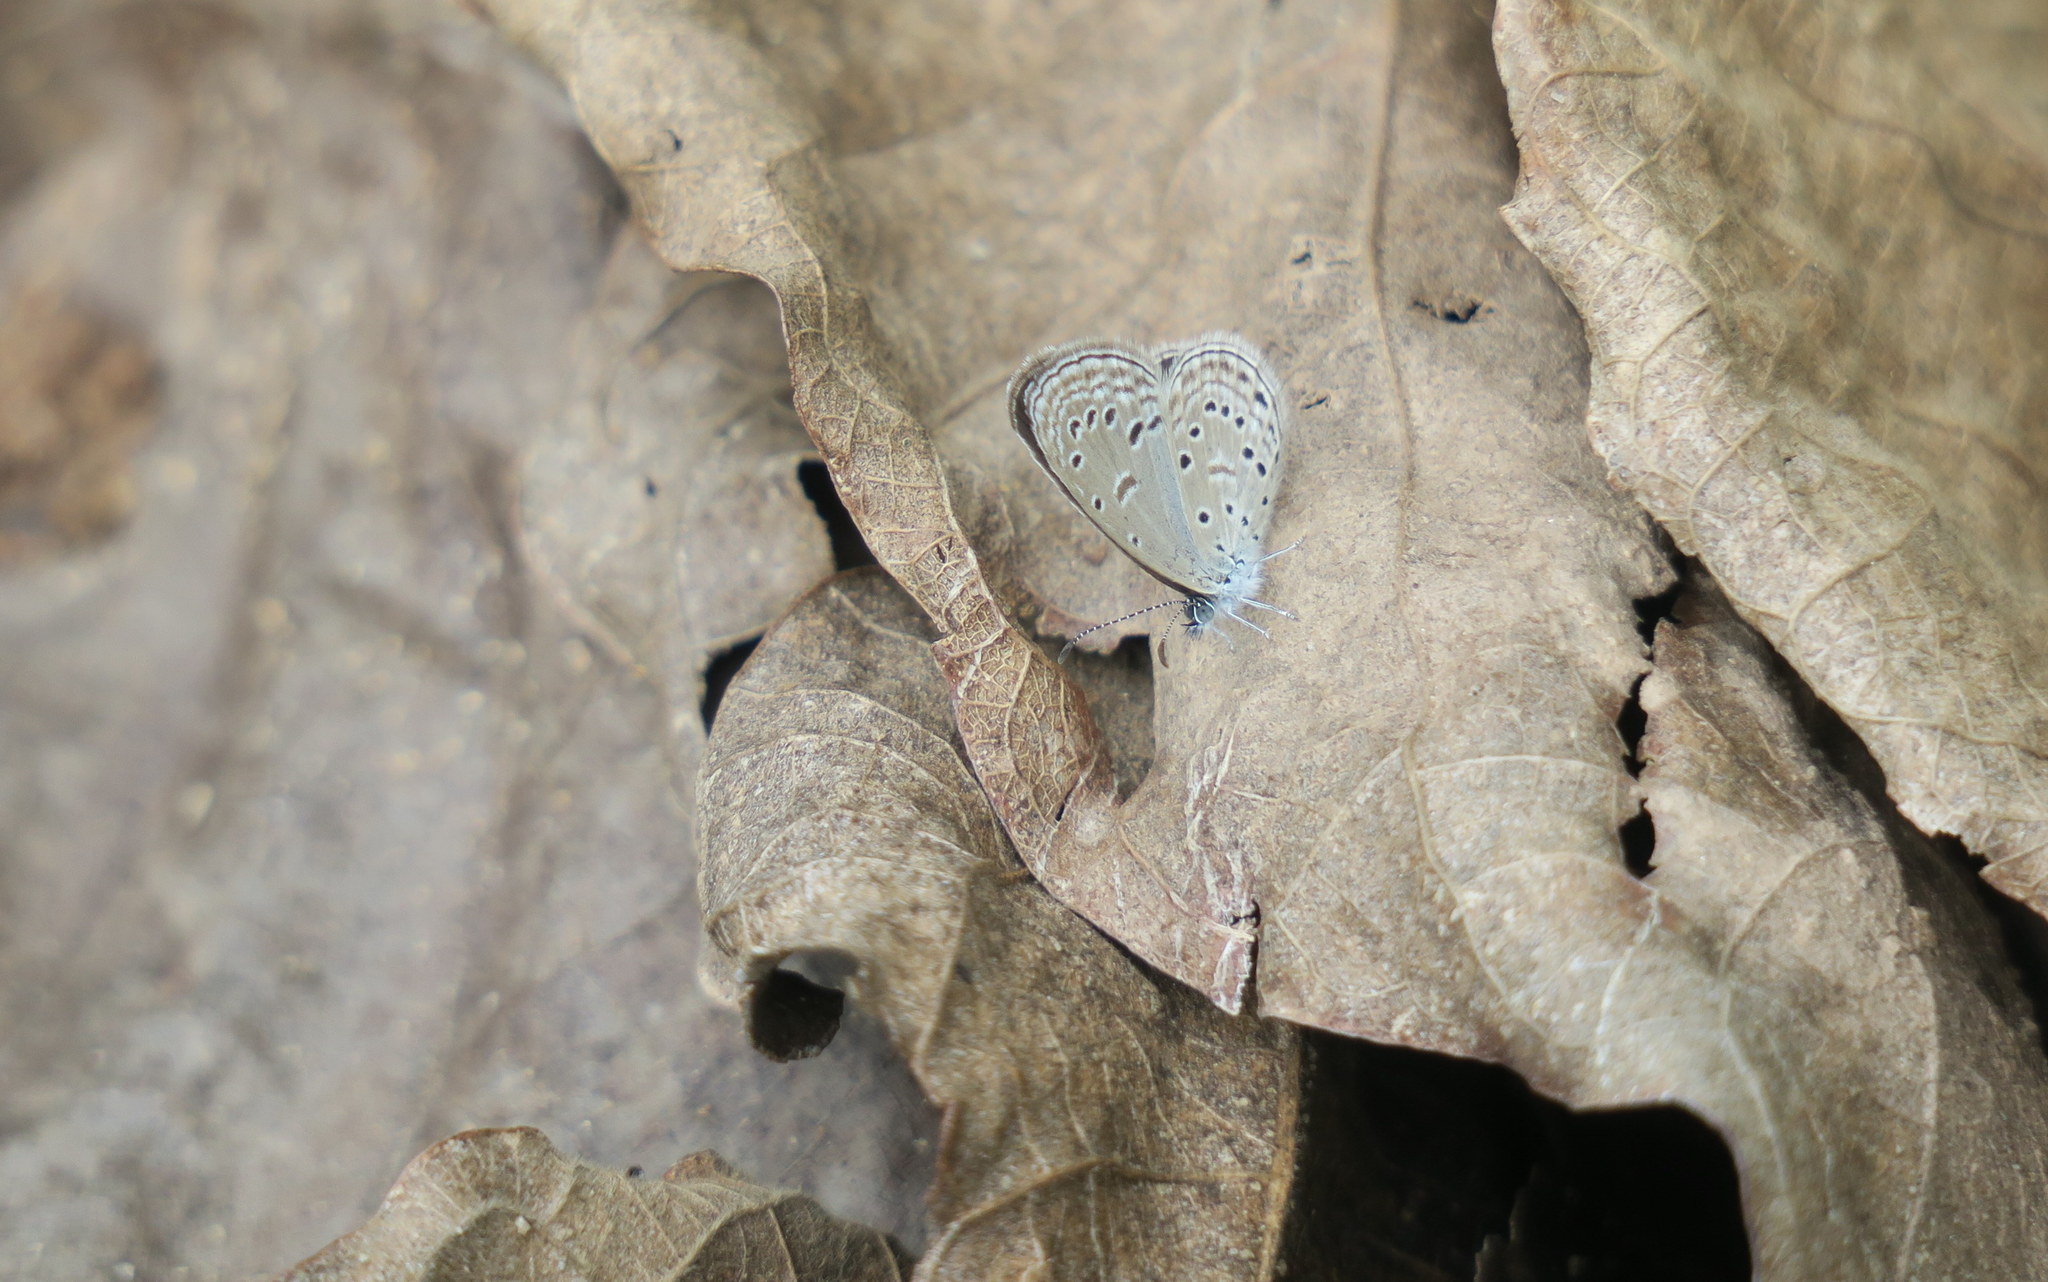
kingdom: Animalia
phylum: Arthropoda
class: Insecta
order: Lepidoptera
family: Lycaenidae
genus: Zizula
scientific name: Zizula hylax
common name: Gaika blue
